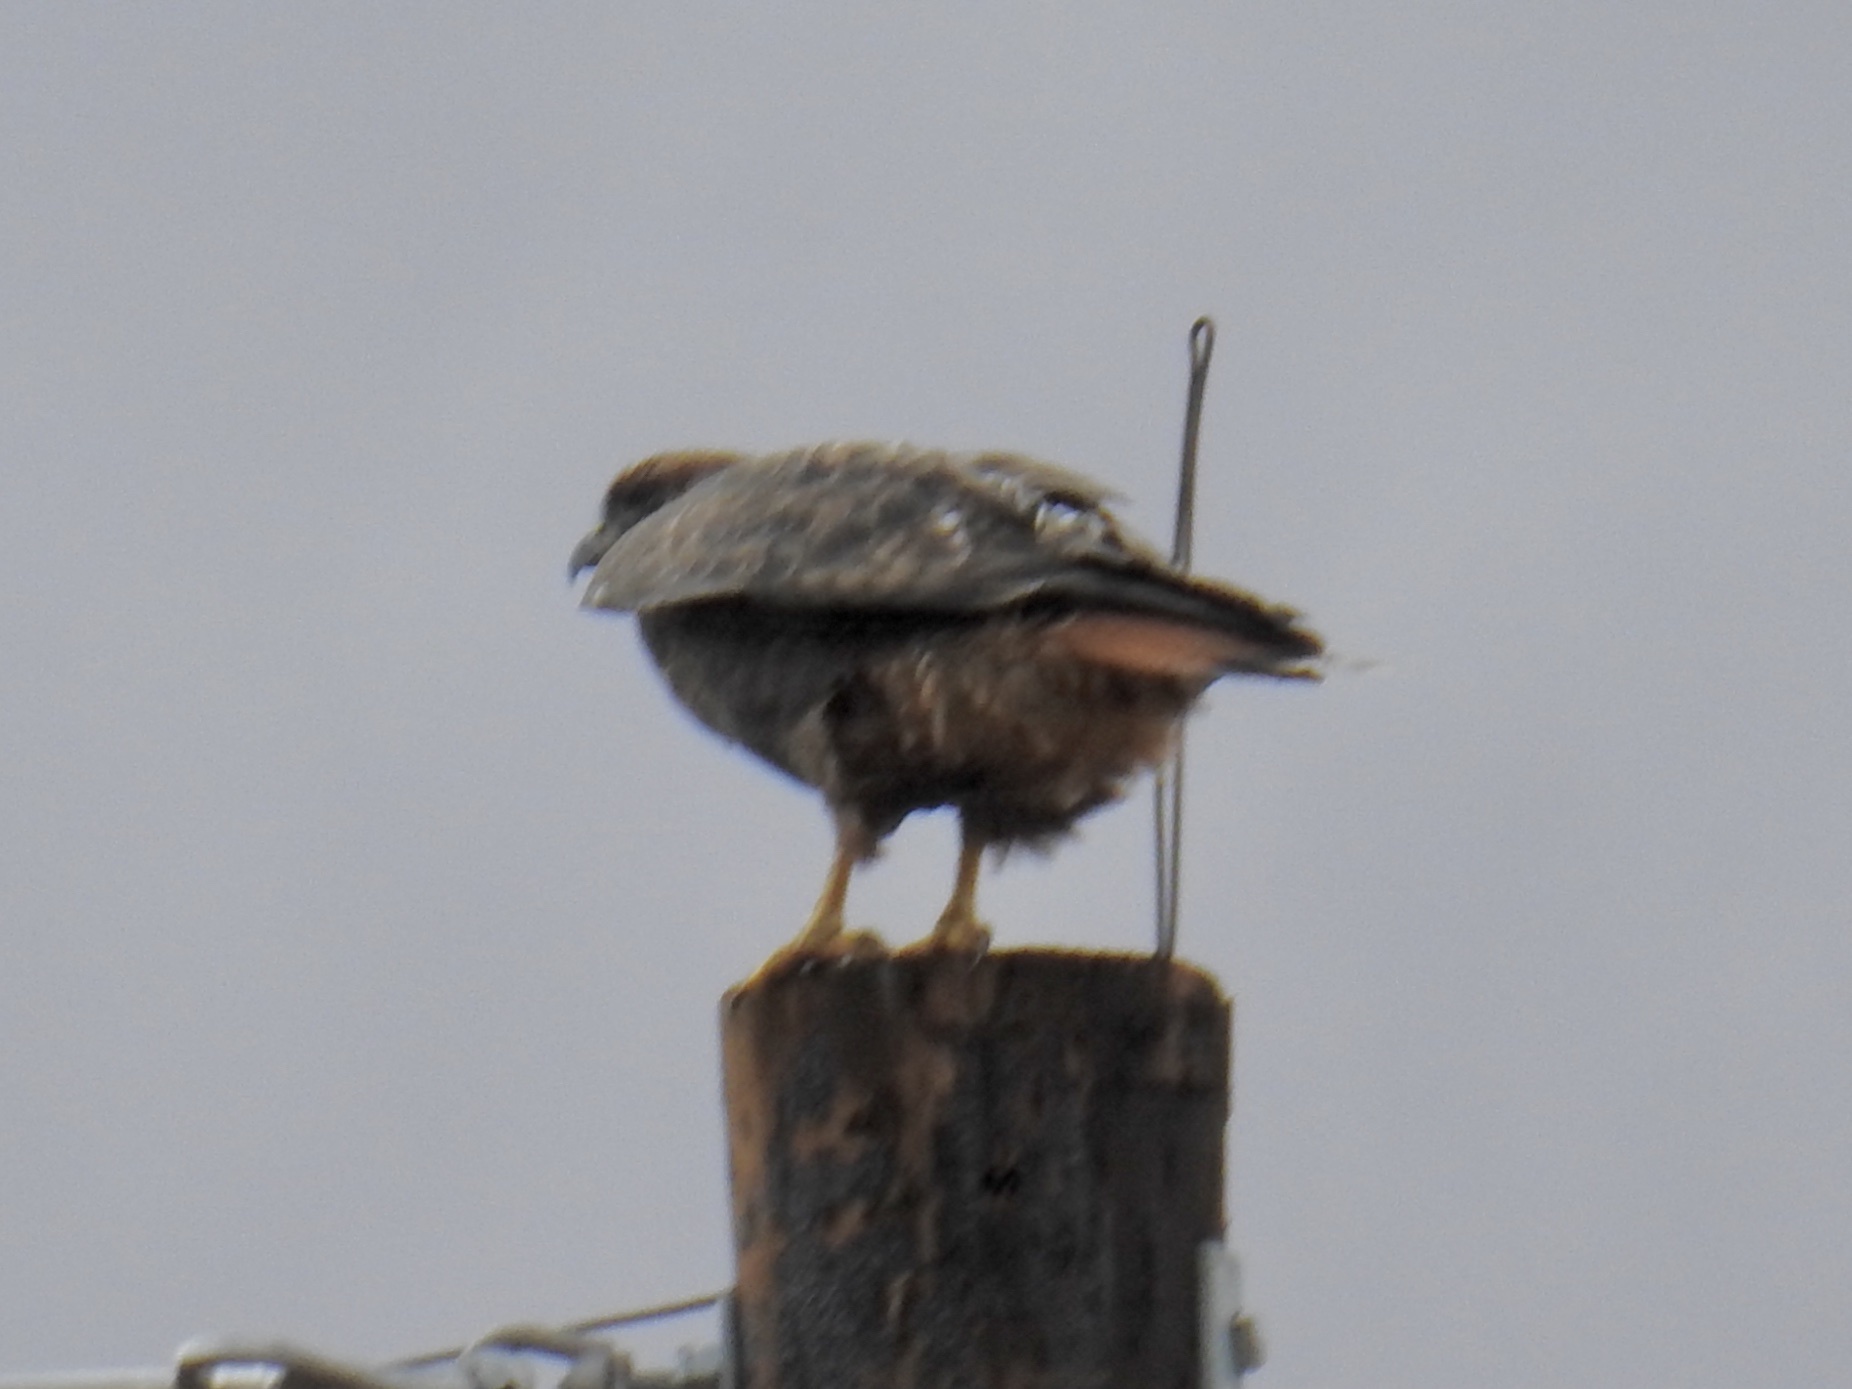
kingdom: Animalia
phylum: Chordata
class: Aves
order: Accipitriformes
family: Accipitridae
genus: Buteo
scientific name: Buteo jamaicensis
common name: Red-tailed hawk
